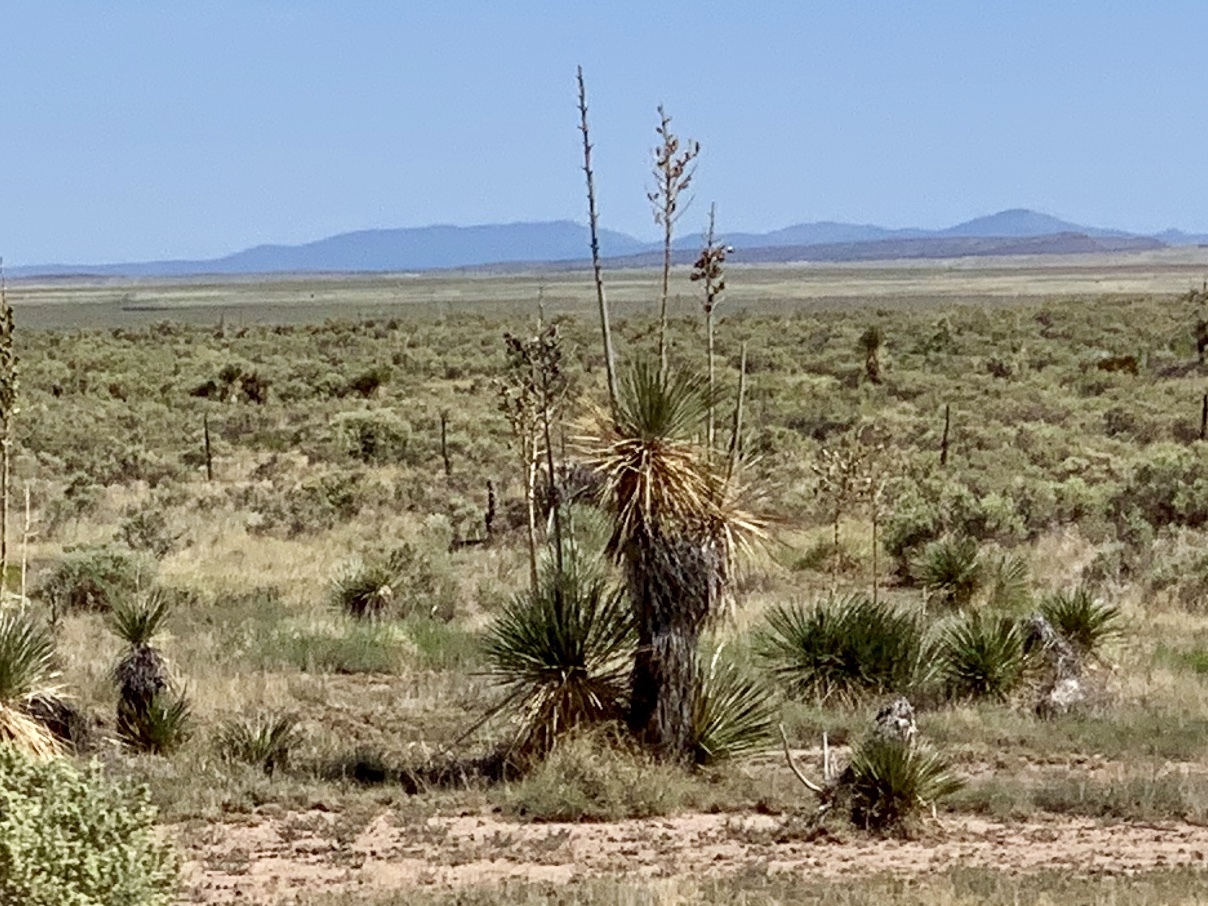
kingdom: Plantae
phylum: Tracheophyta
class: Liliopsida
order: Asparagales
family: Asparagaceae
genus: Yucca
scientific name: Yucca elata
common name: Palmella
